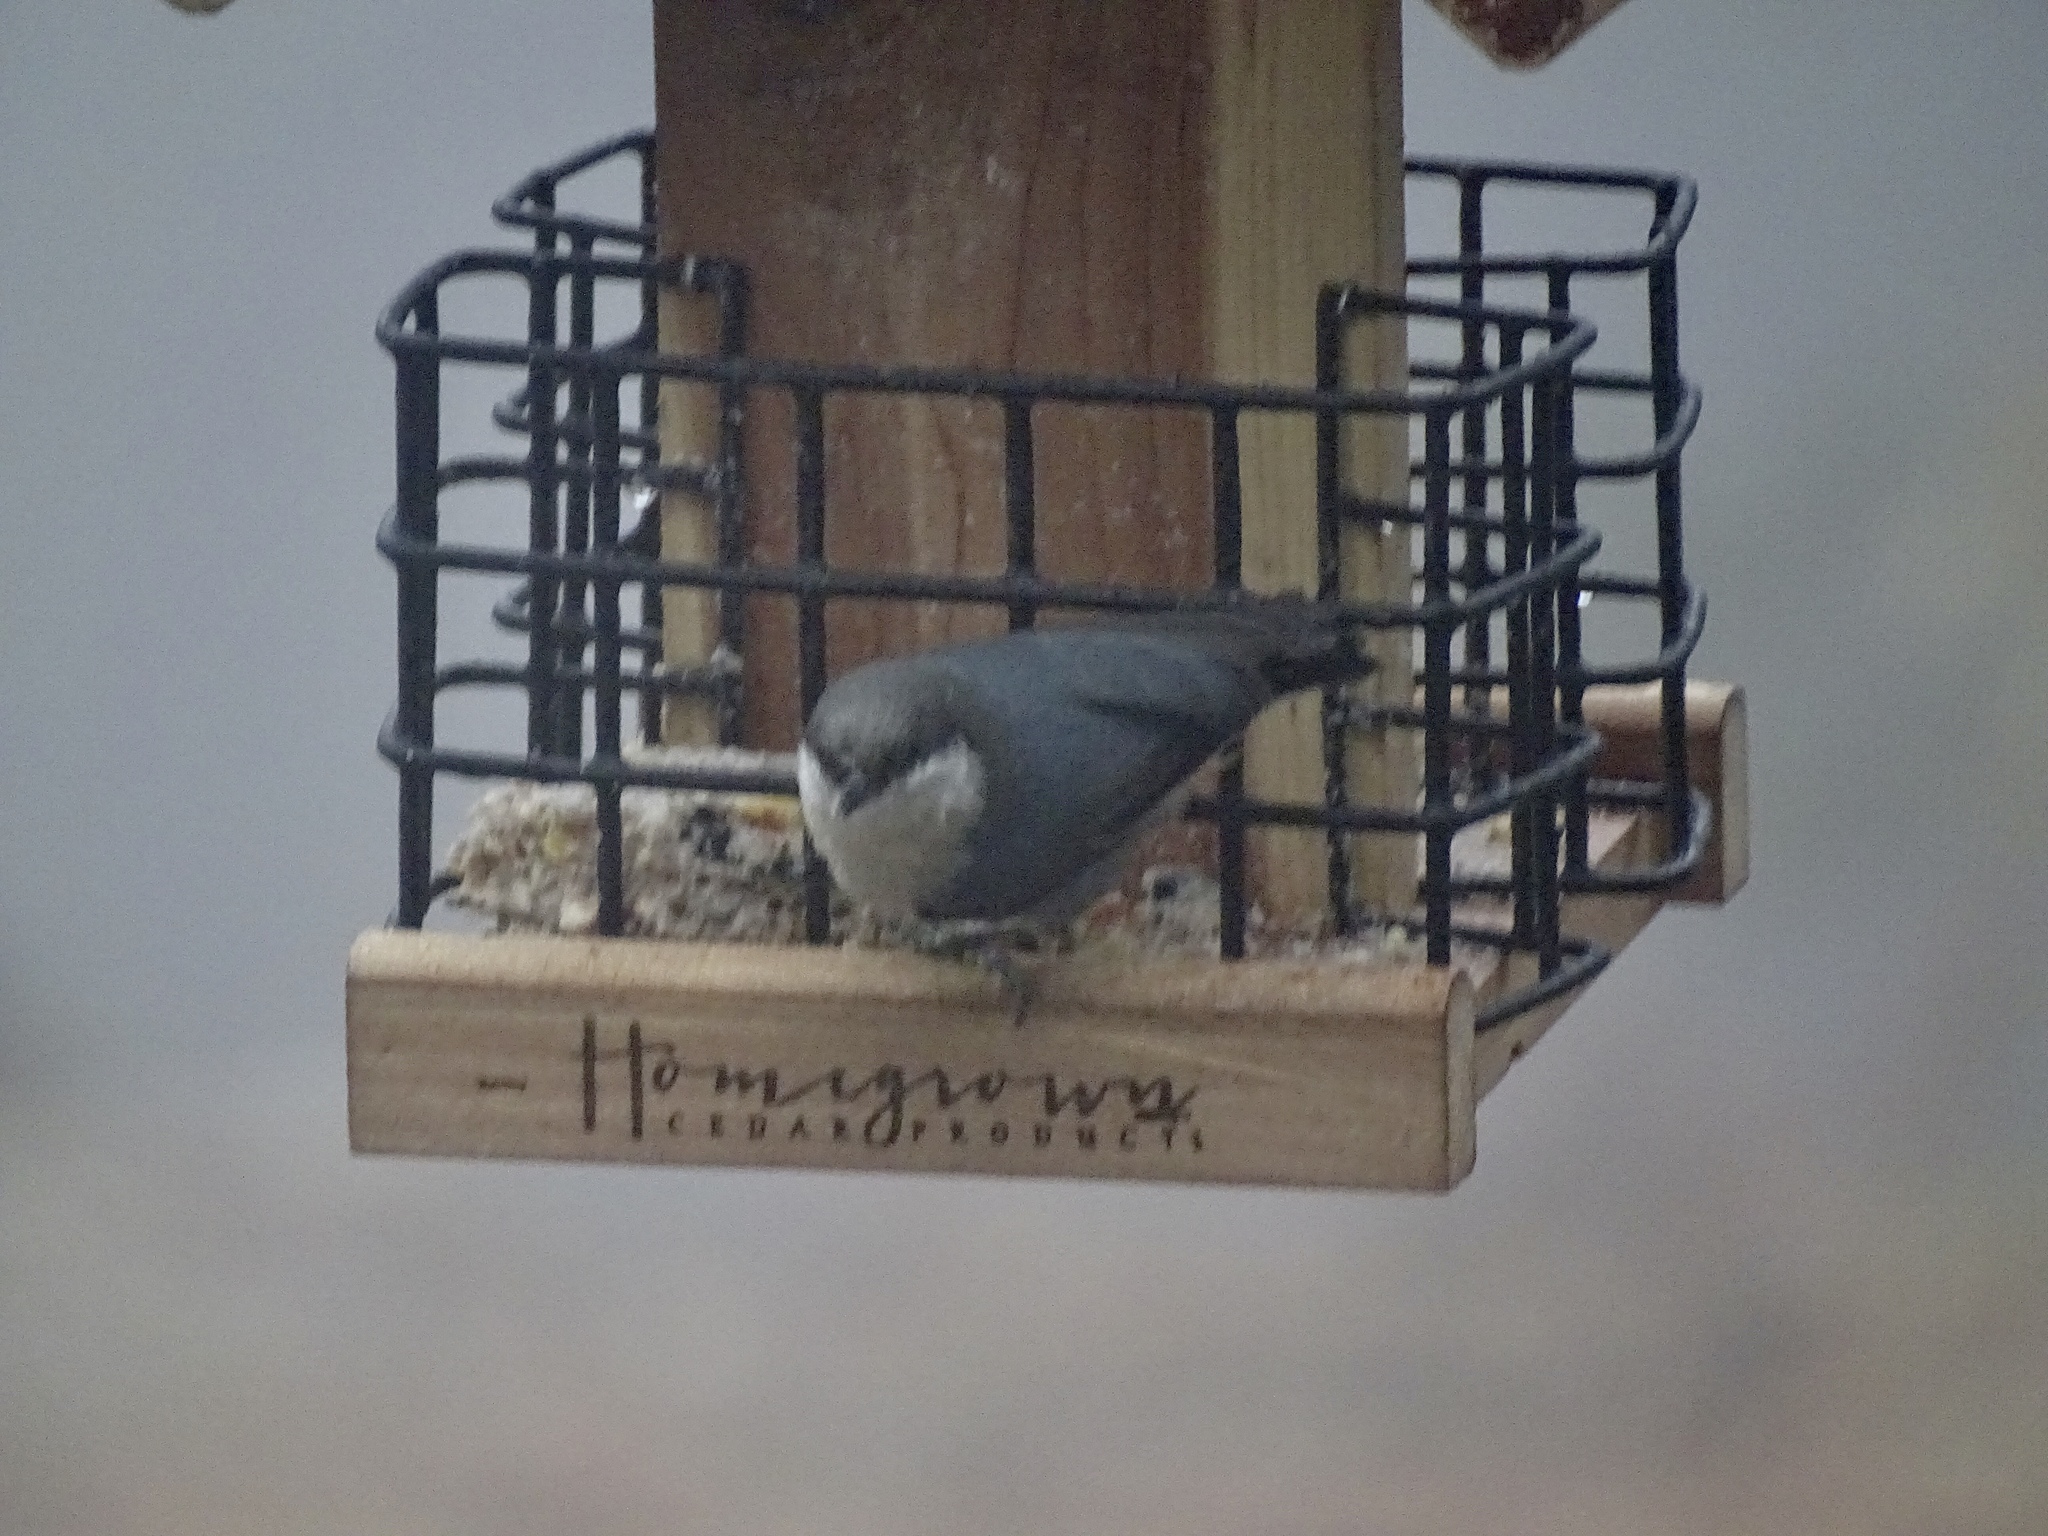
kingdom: Animalia
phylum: Chordata
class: Aves
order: Passeriformes
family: Sittidae
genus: Sitta
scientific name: Sitta pygmaea
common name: Pygmy nuthatch
